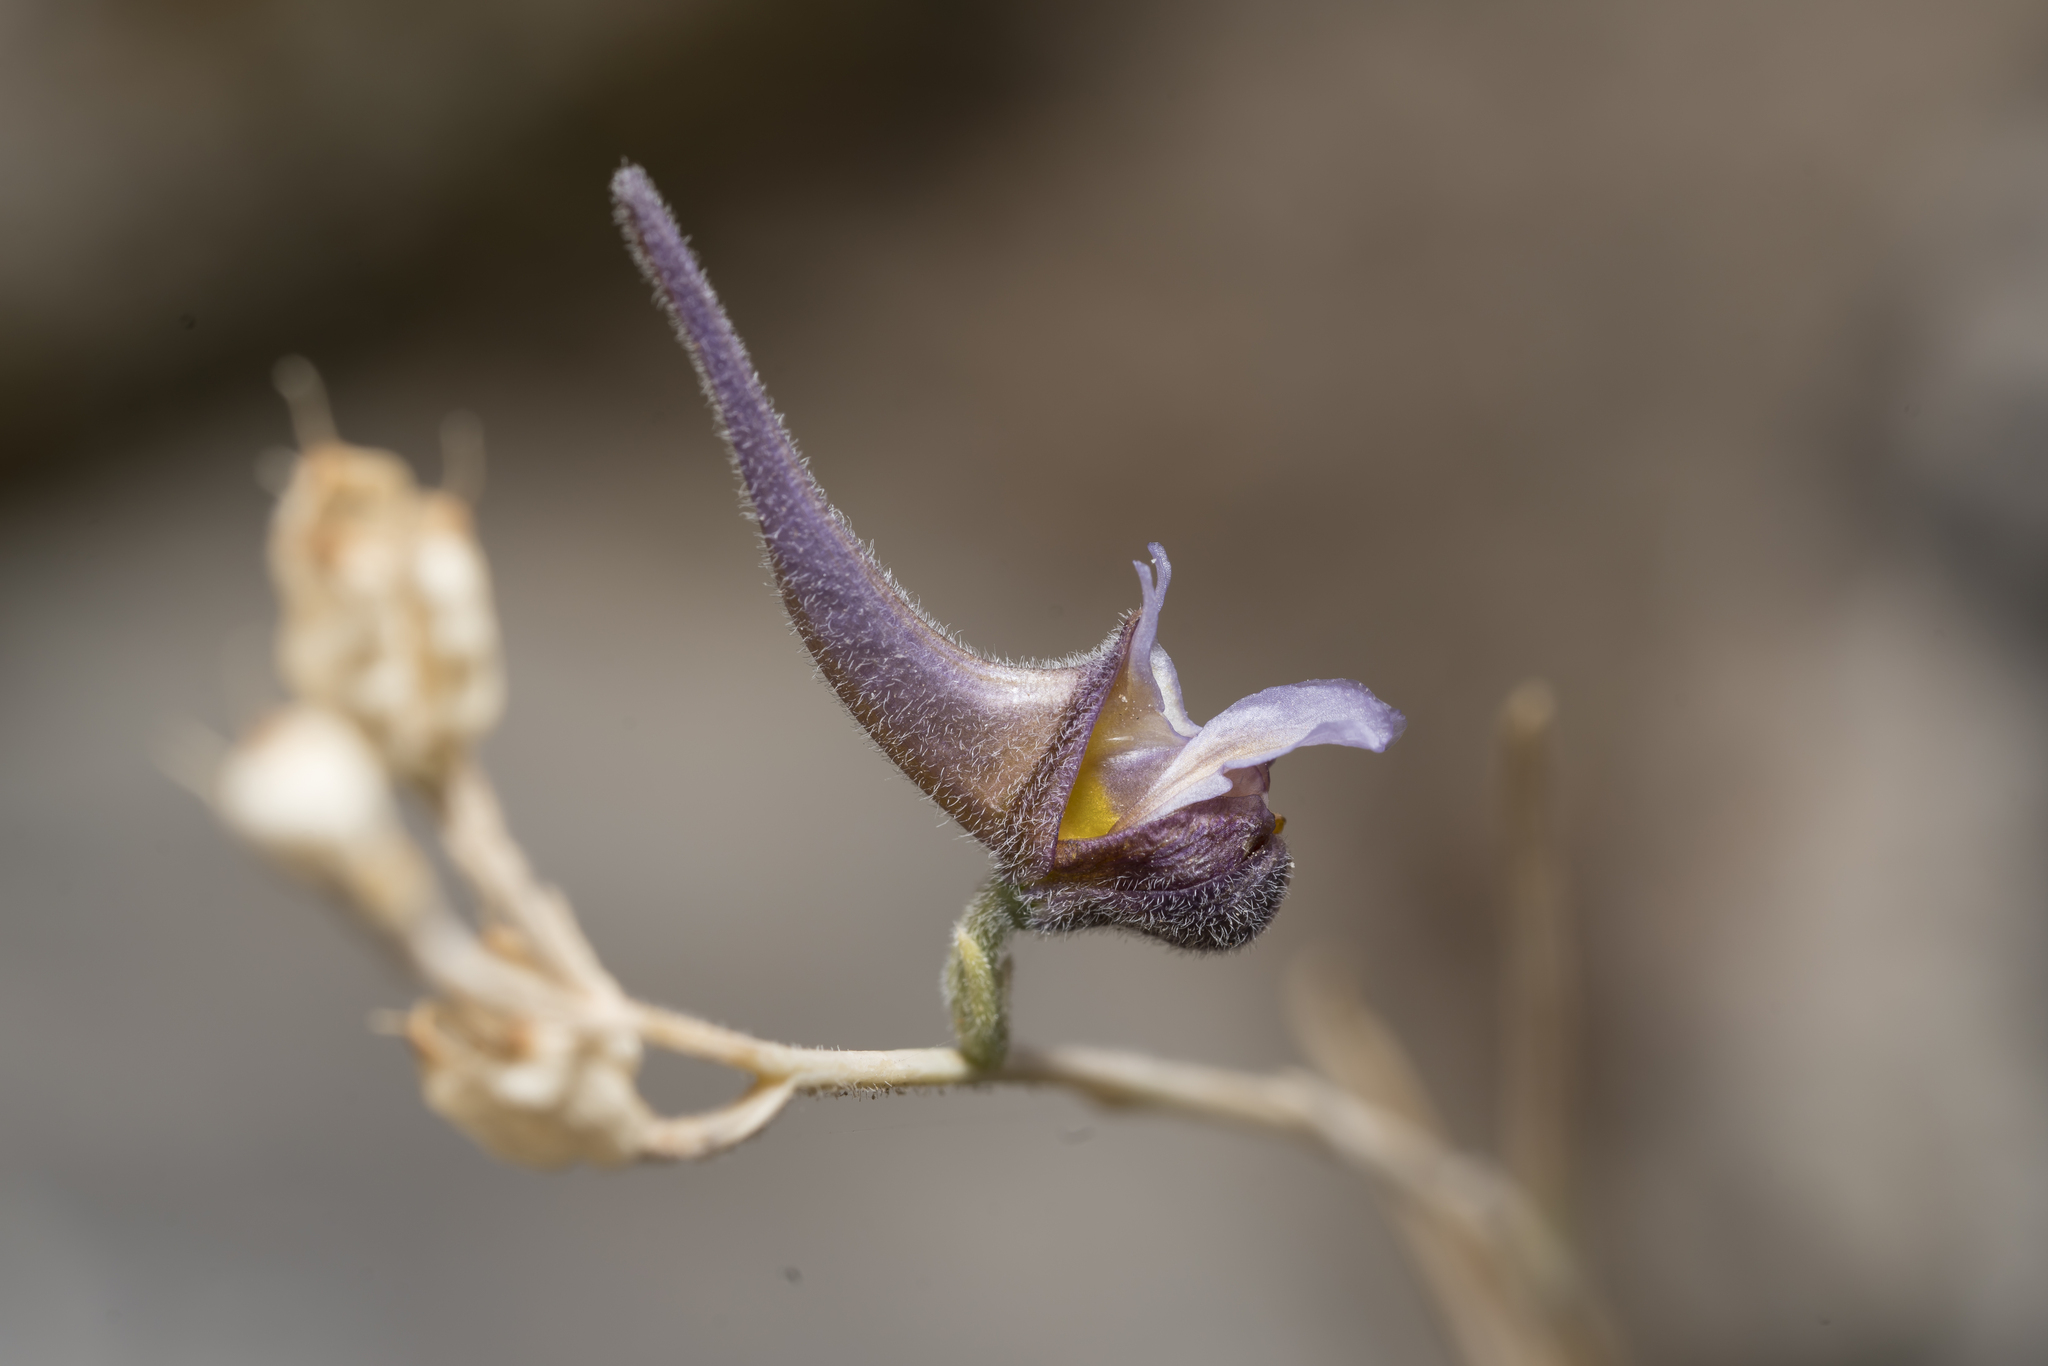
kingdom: Plantae
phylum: Tracheophyta
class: Magnoliopsida
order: Ranunculales
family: Ranunculaceae
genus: Delphinium
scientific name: Delphinium peregrinum
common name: Violet larkspur
